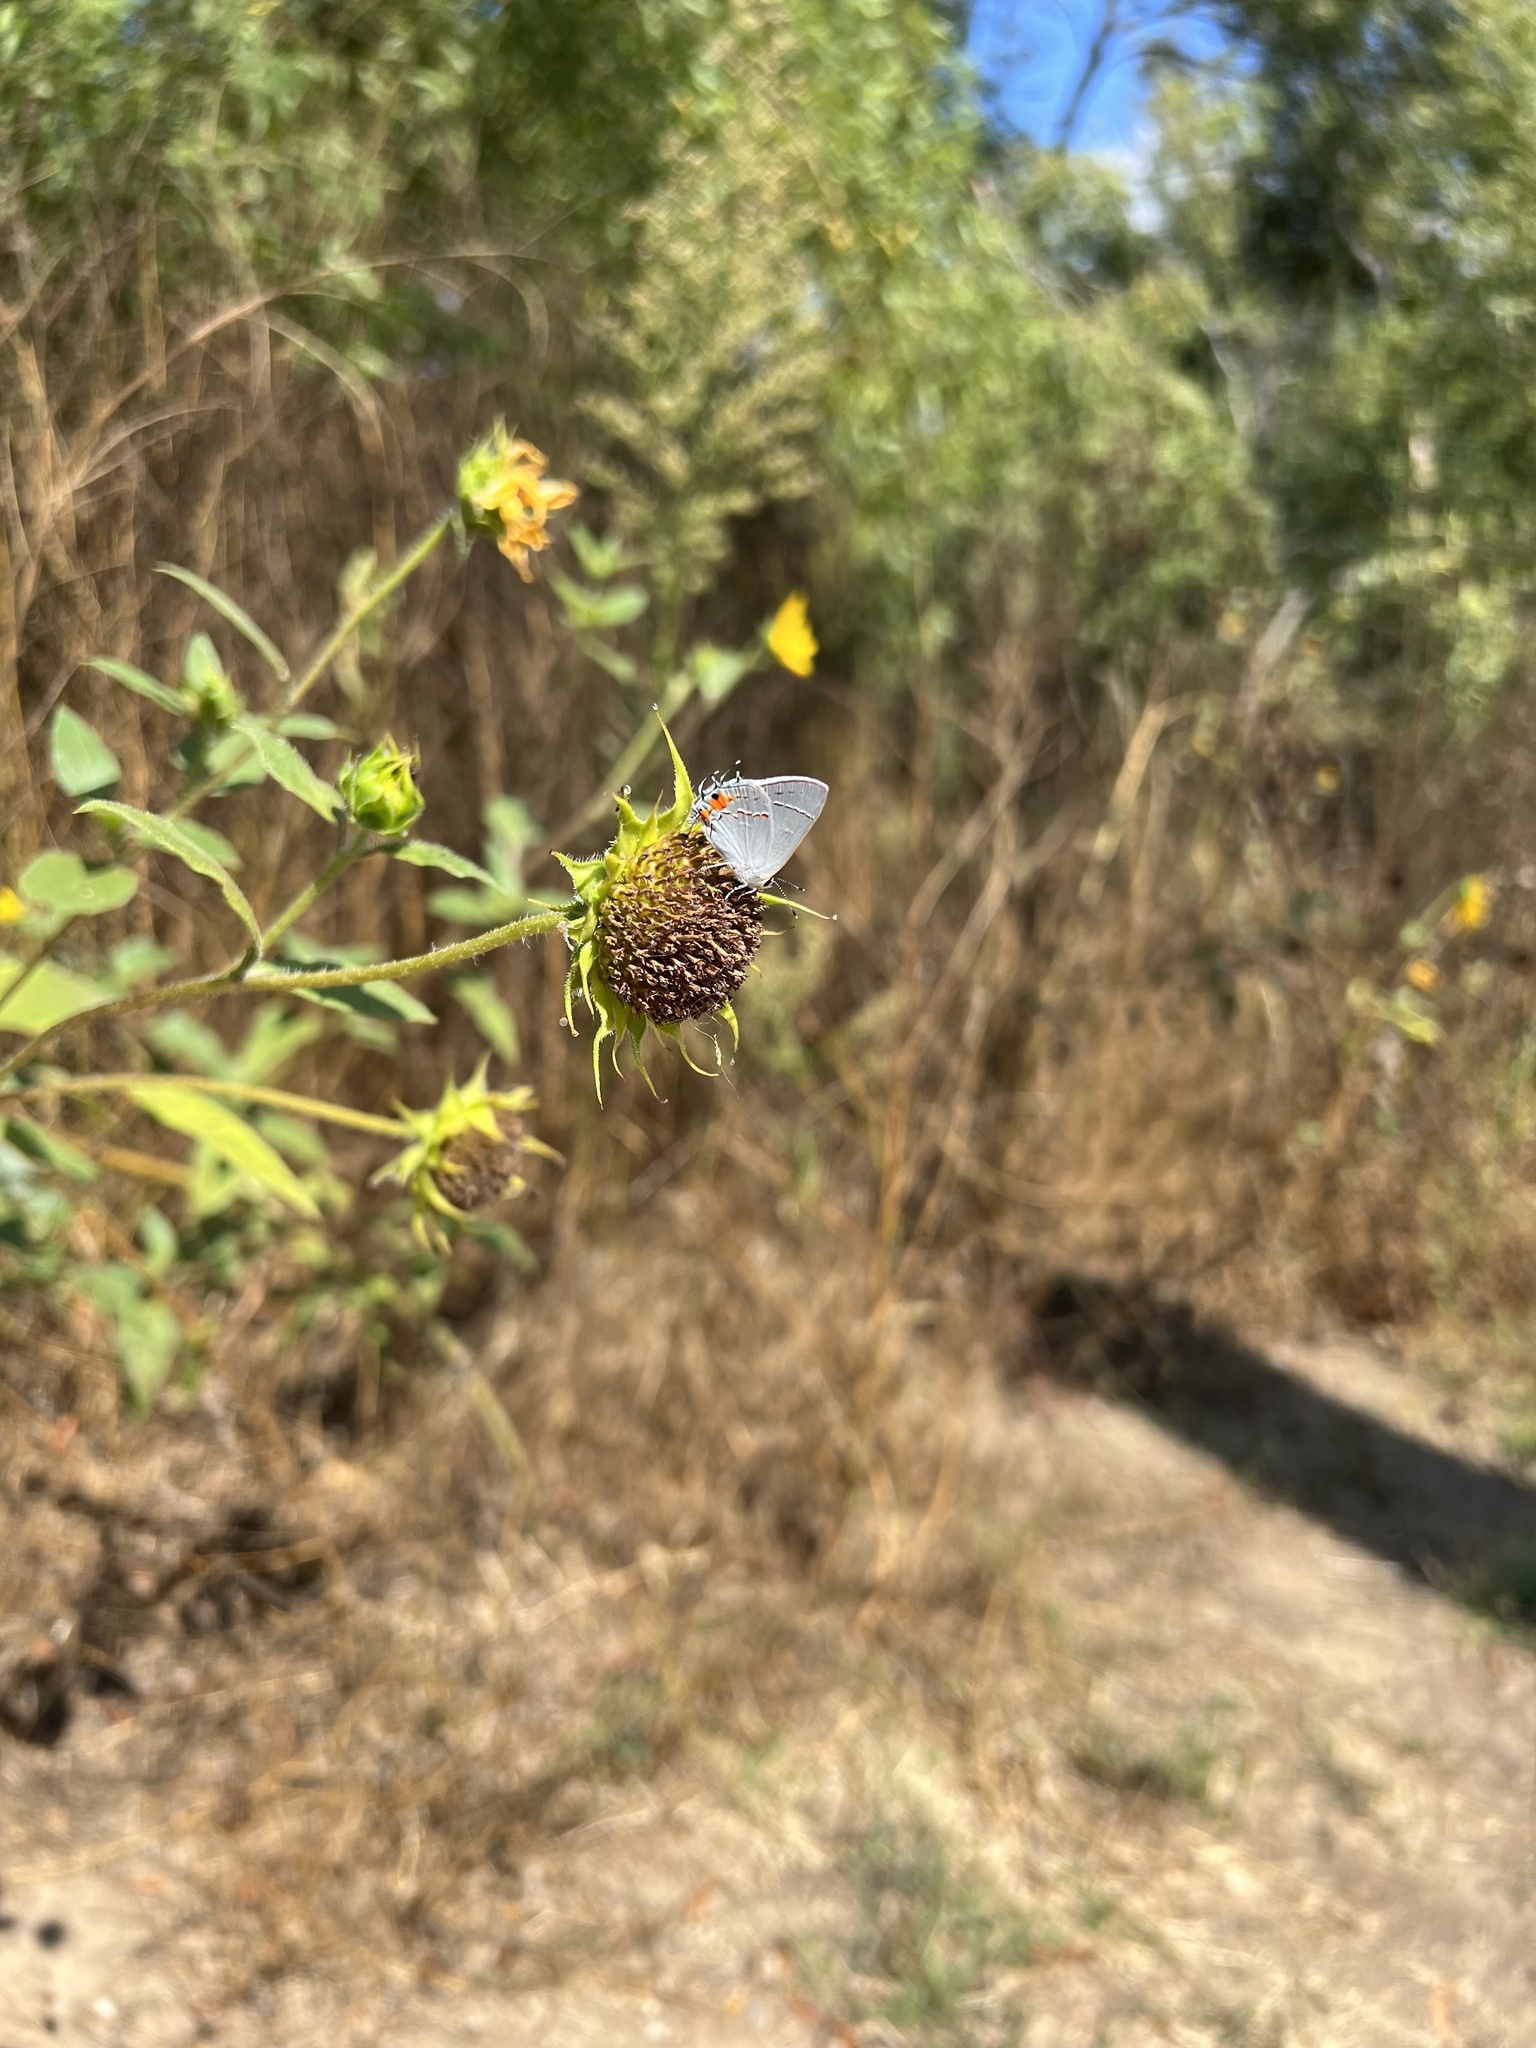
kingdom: Animalia
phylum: Arthropoda
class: Insecta
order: Lepidoptera
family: Lycaenidae
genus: Strymon
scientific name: Strymon melinus
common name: Gray hairstreak
